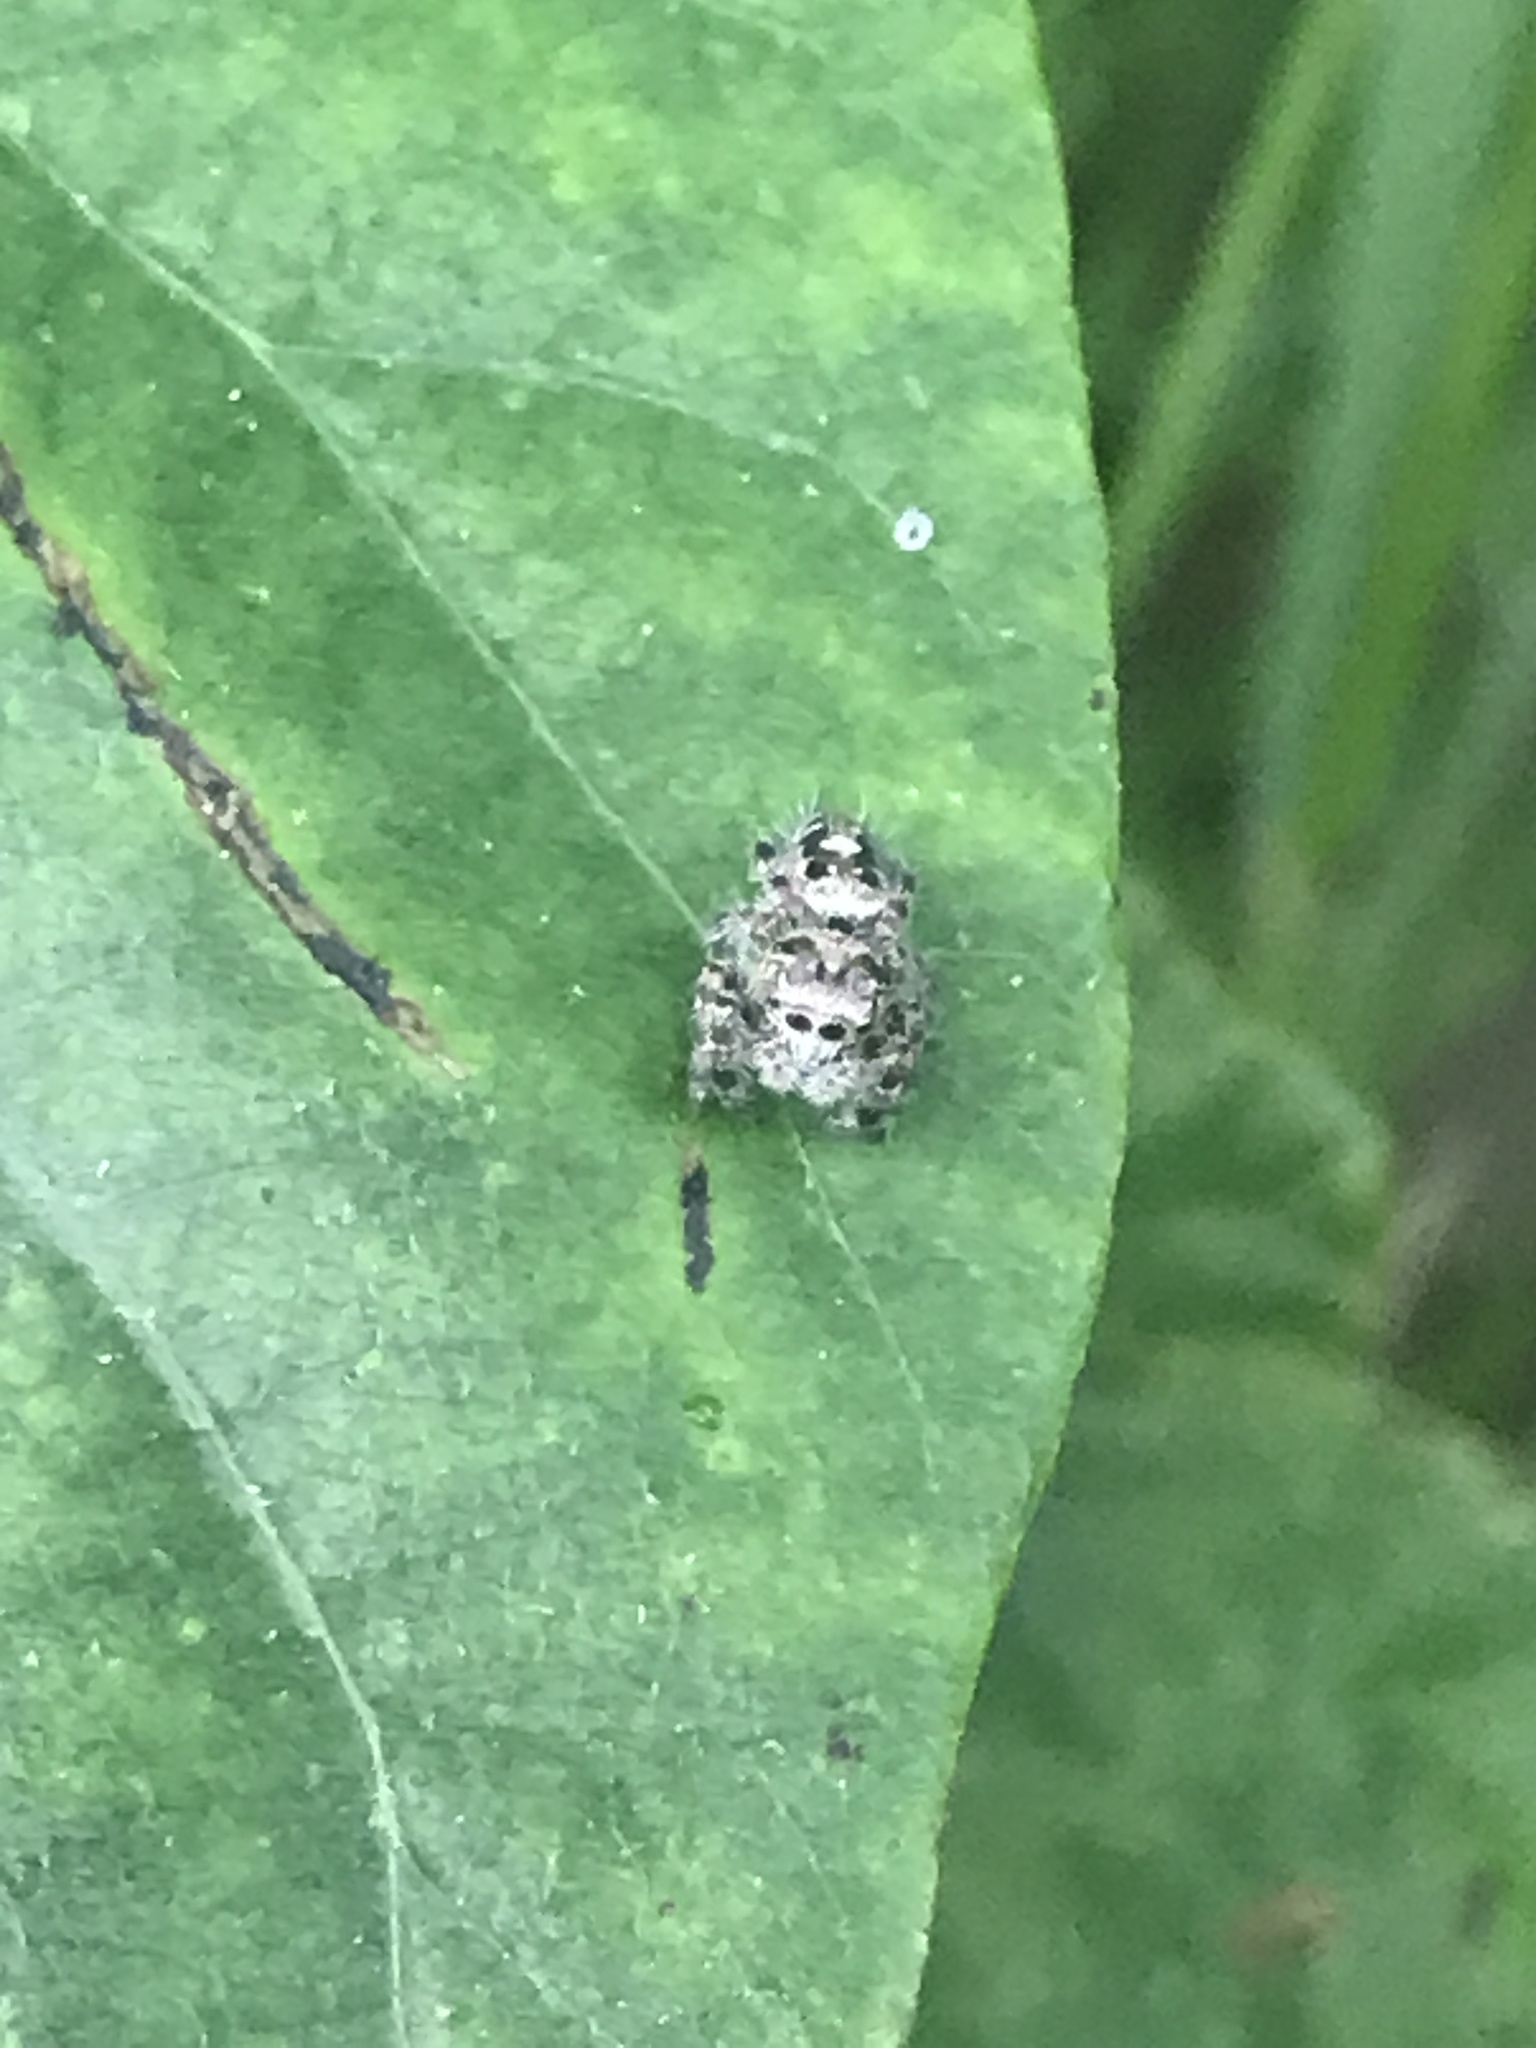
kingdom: Animalia
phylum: Arthropoda
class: Arachnida
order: Araneae
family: Salticidae
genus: Phidippus
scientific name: Phidippus putnami
